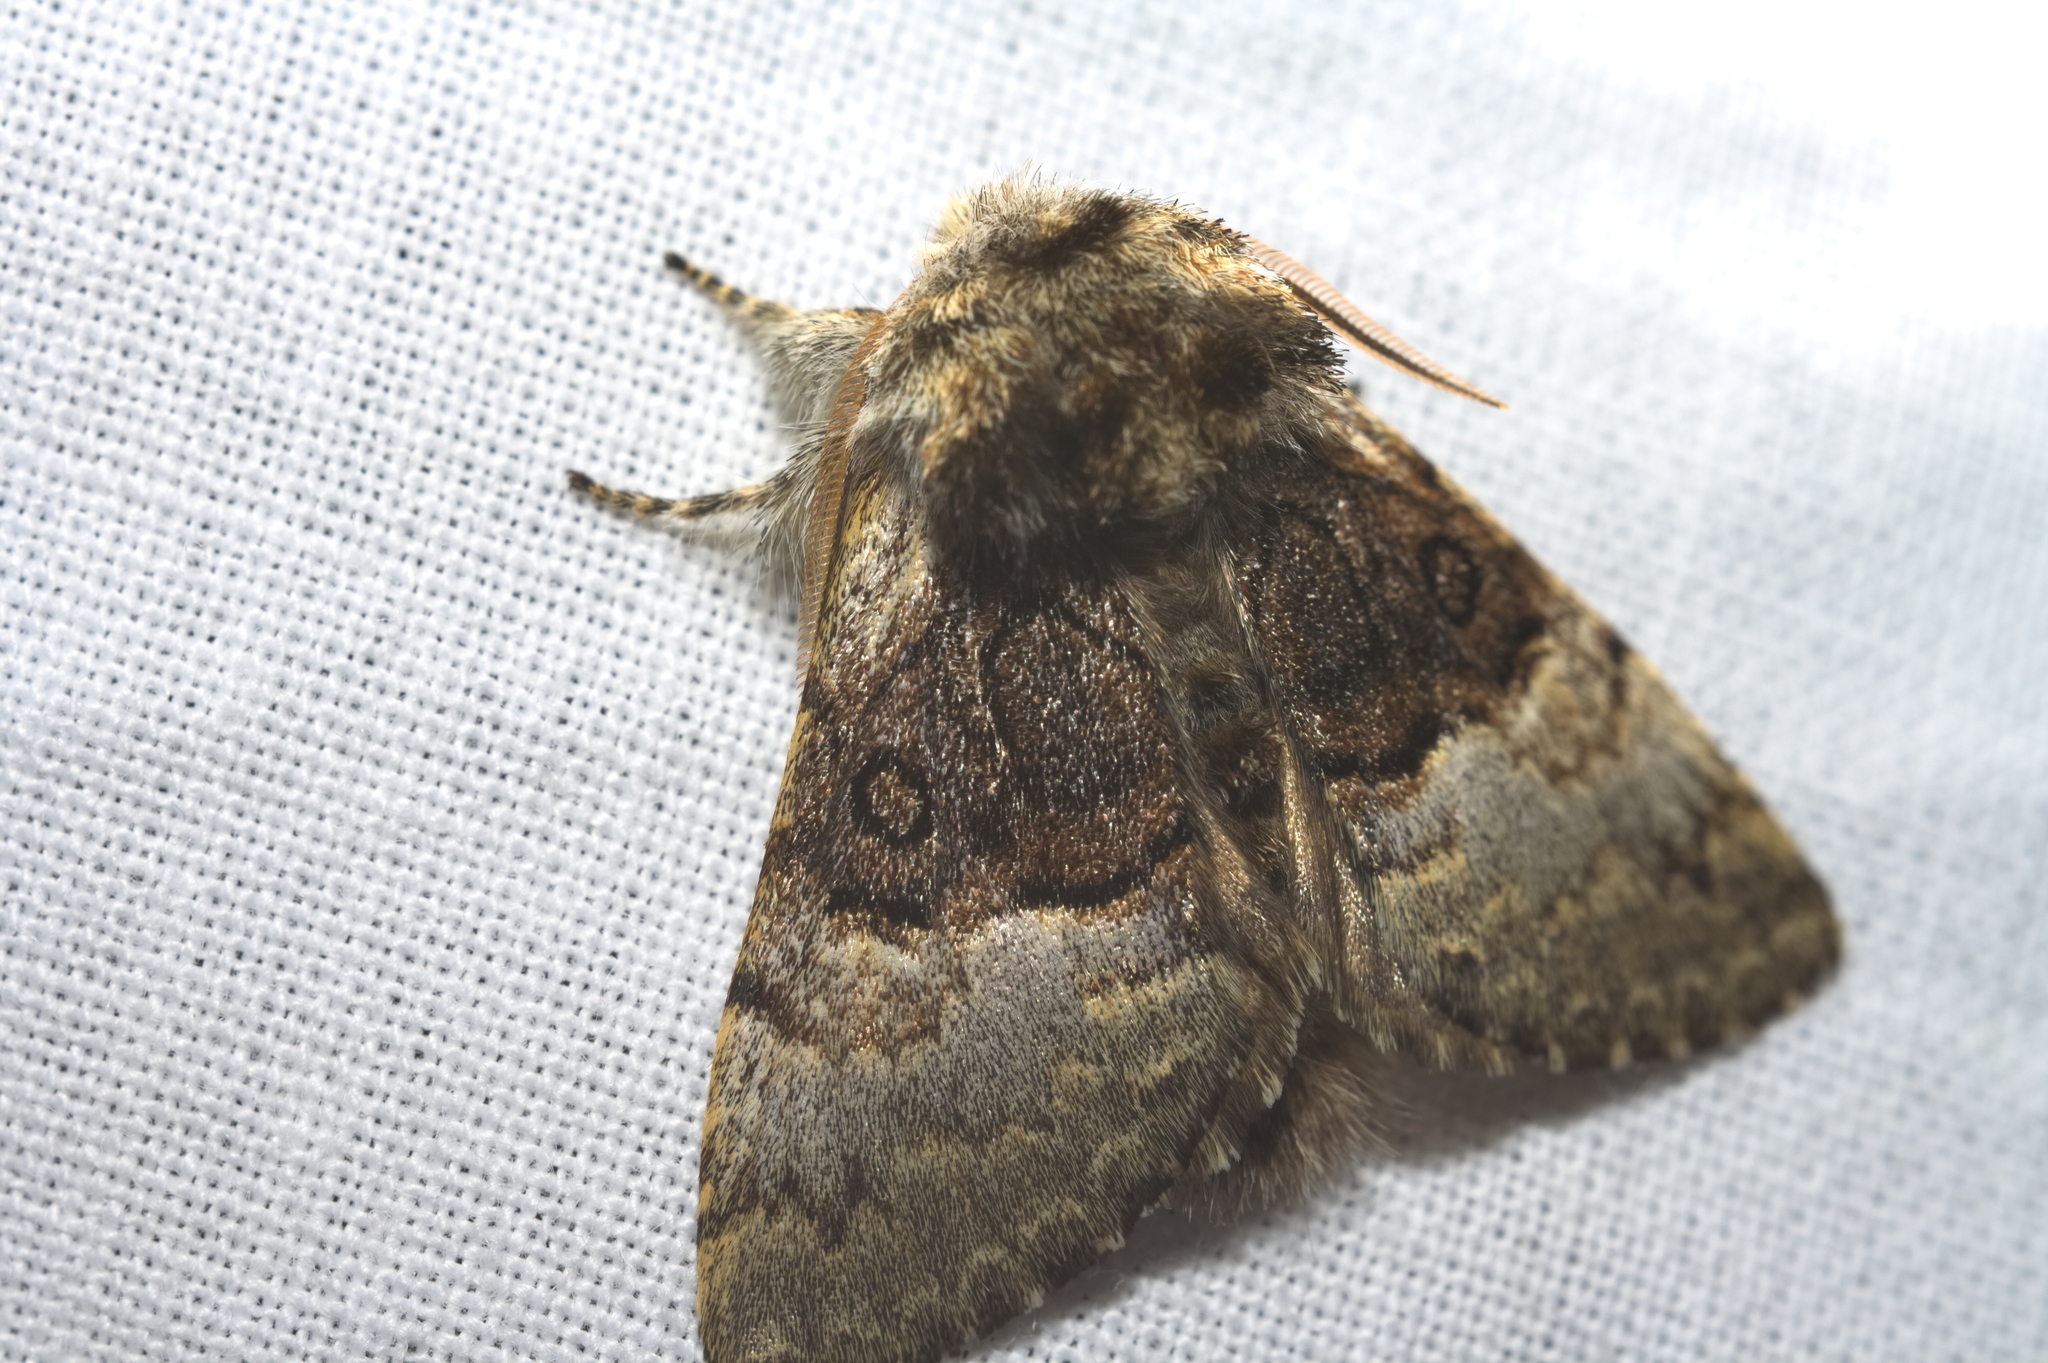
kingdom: Animalia
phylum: Arthropoda
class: Insecta
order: Lepidoptera
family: Noctuidae
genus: Colocasia
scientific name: Colocasia coryli
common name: Nut-tree tussock
